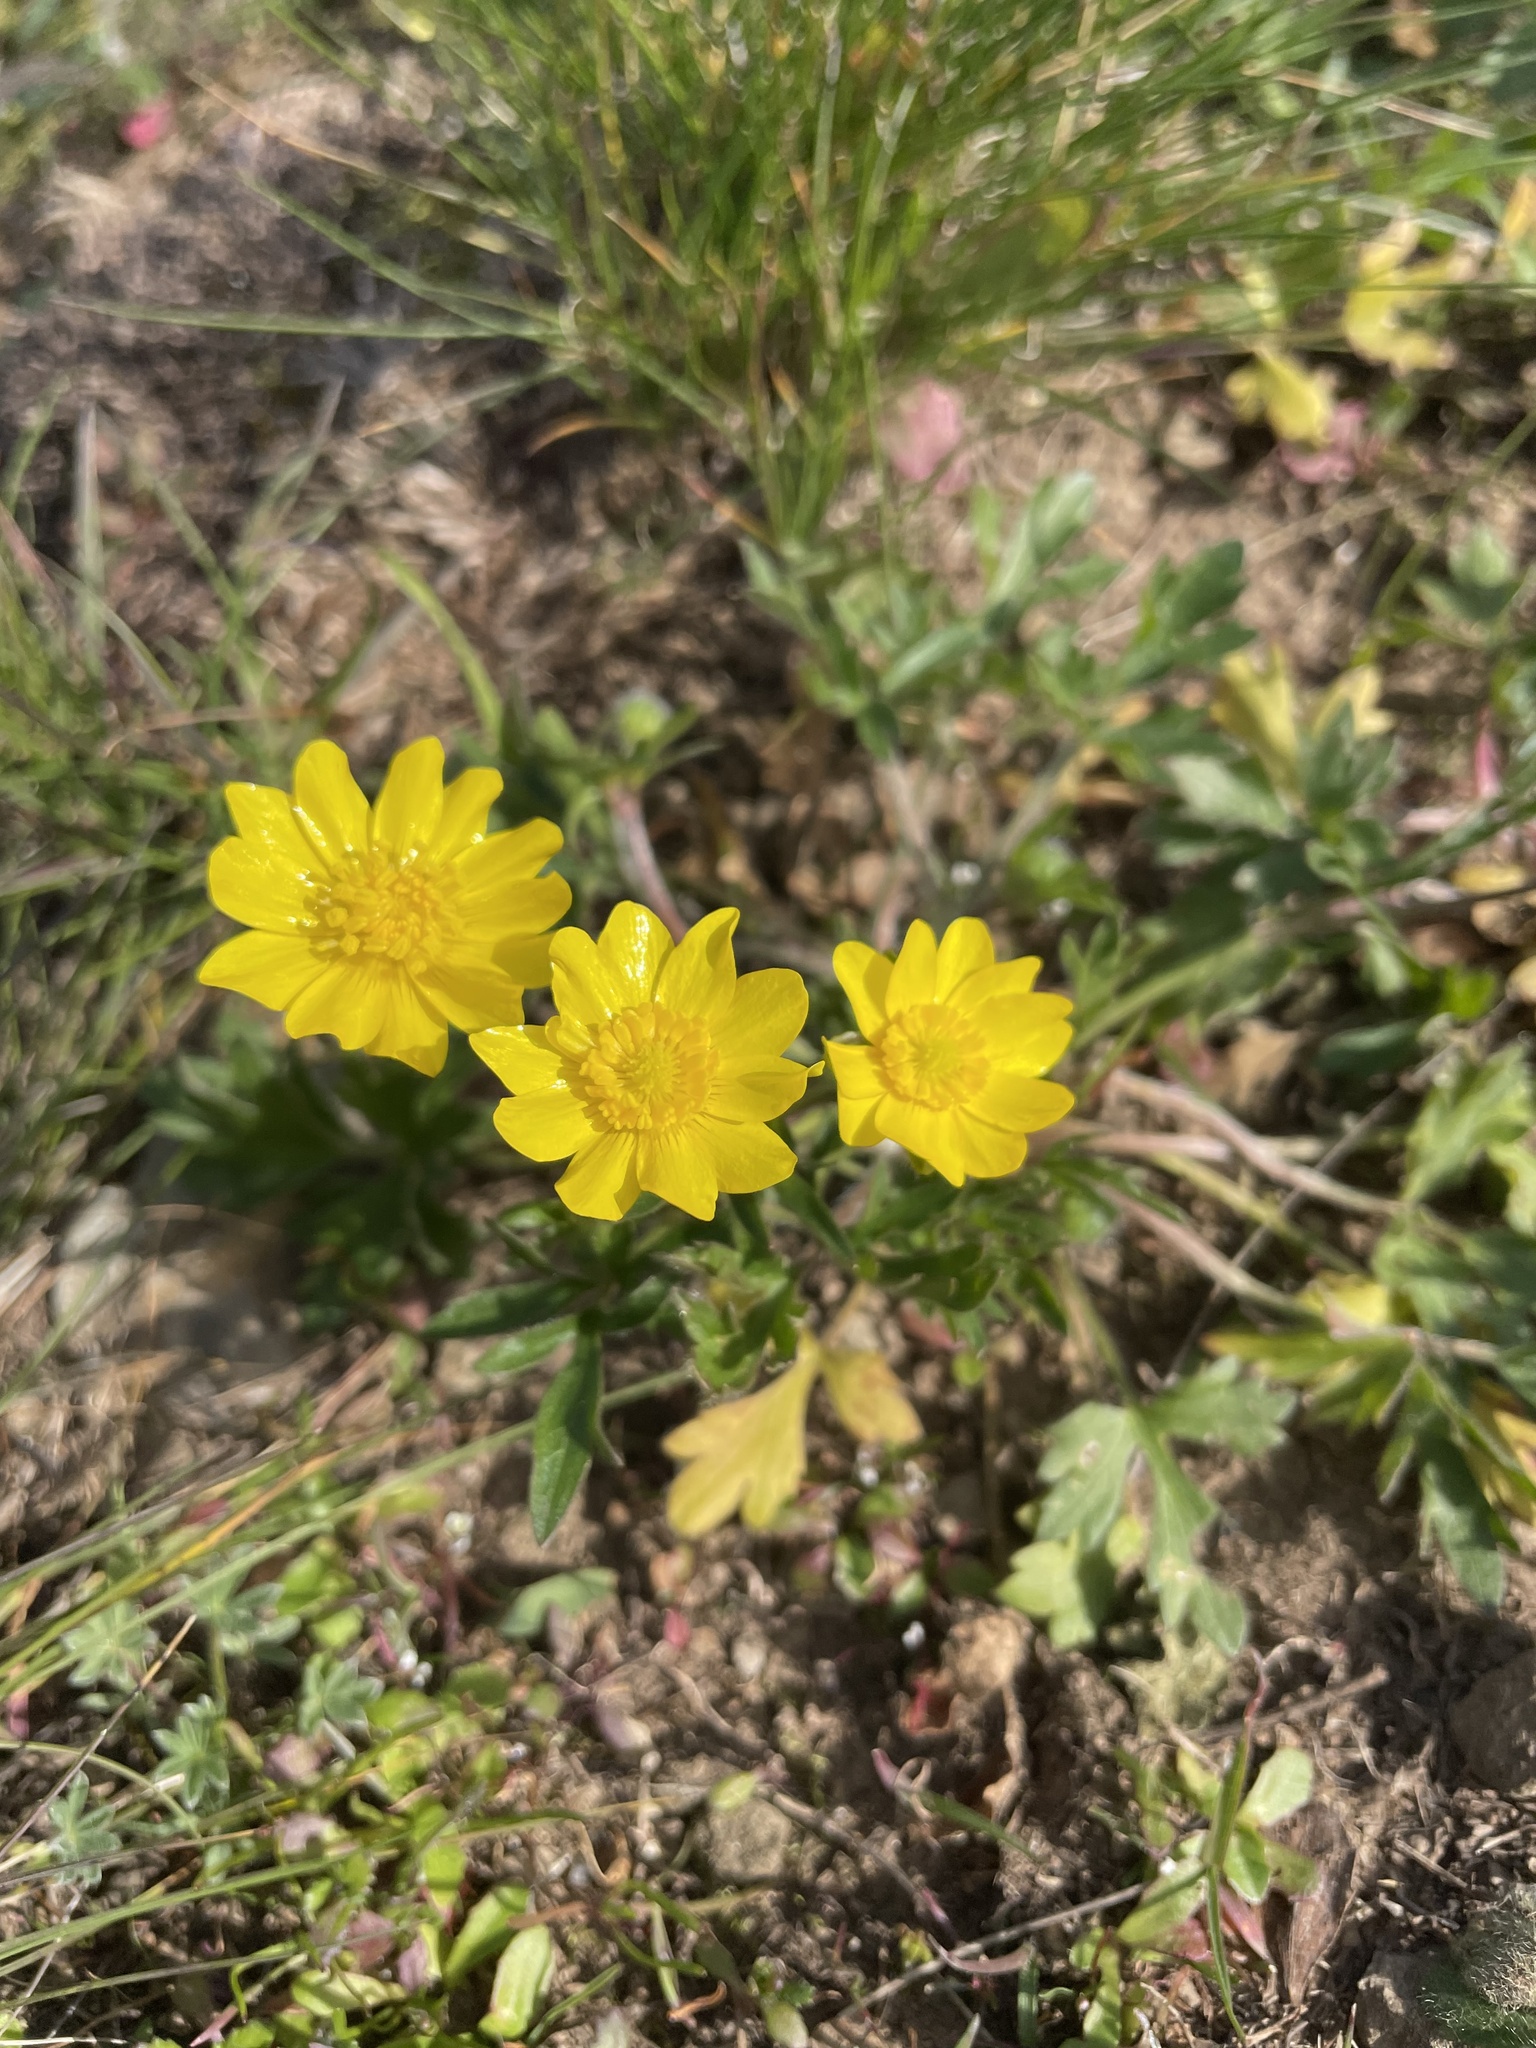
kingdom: Plantae
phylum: Tracheophyta
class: Magnoliopsida
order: Ranunculales
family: Ranunculaceae
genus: Ranunculus
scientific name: Ranunculus californicus
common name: California buttercup
